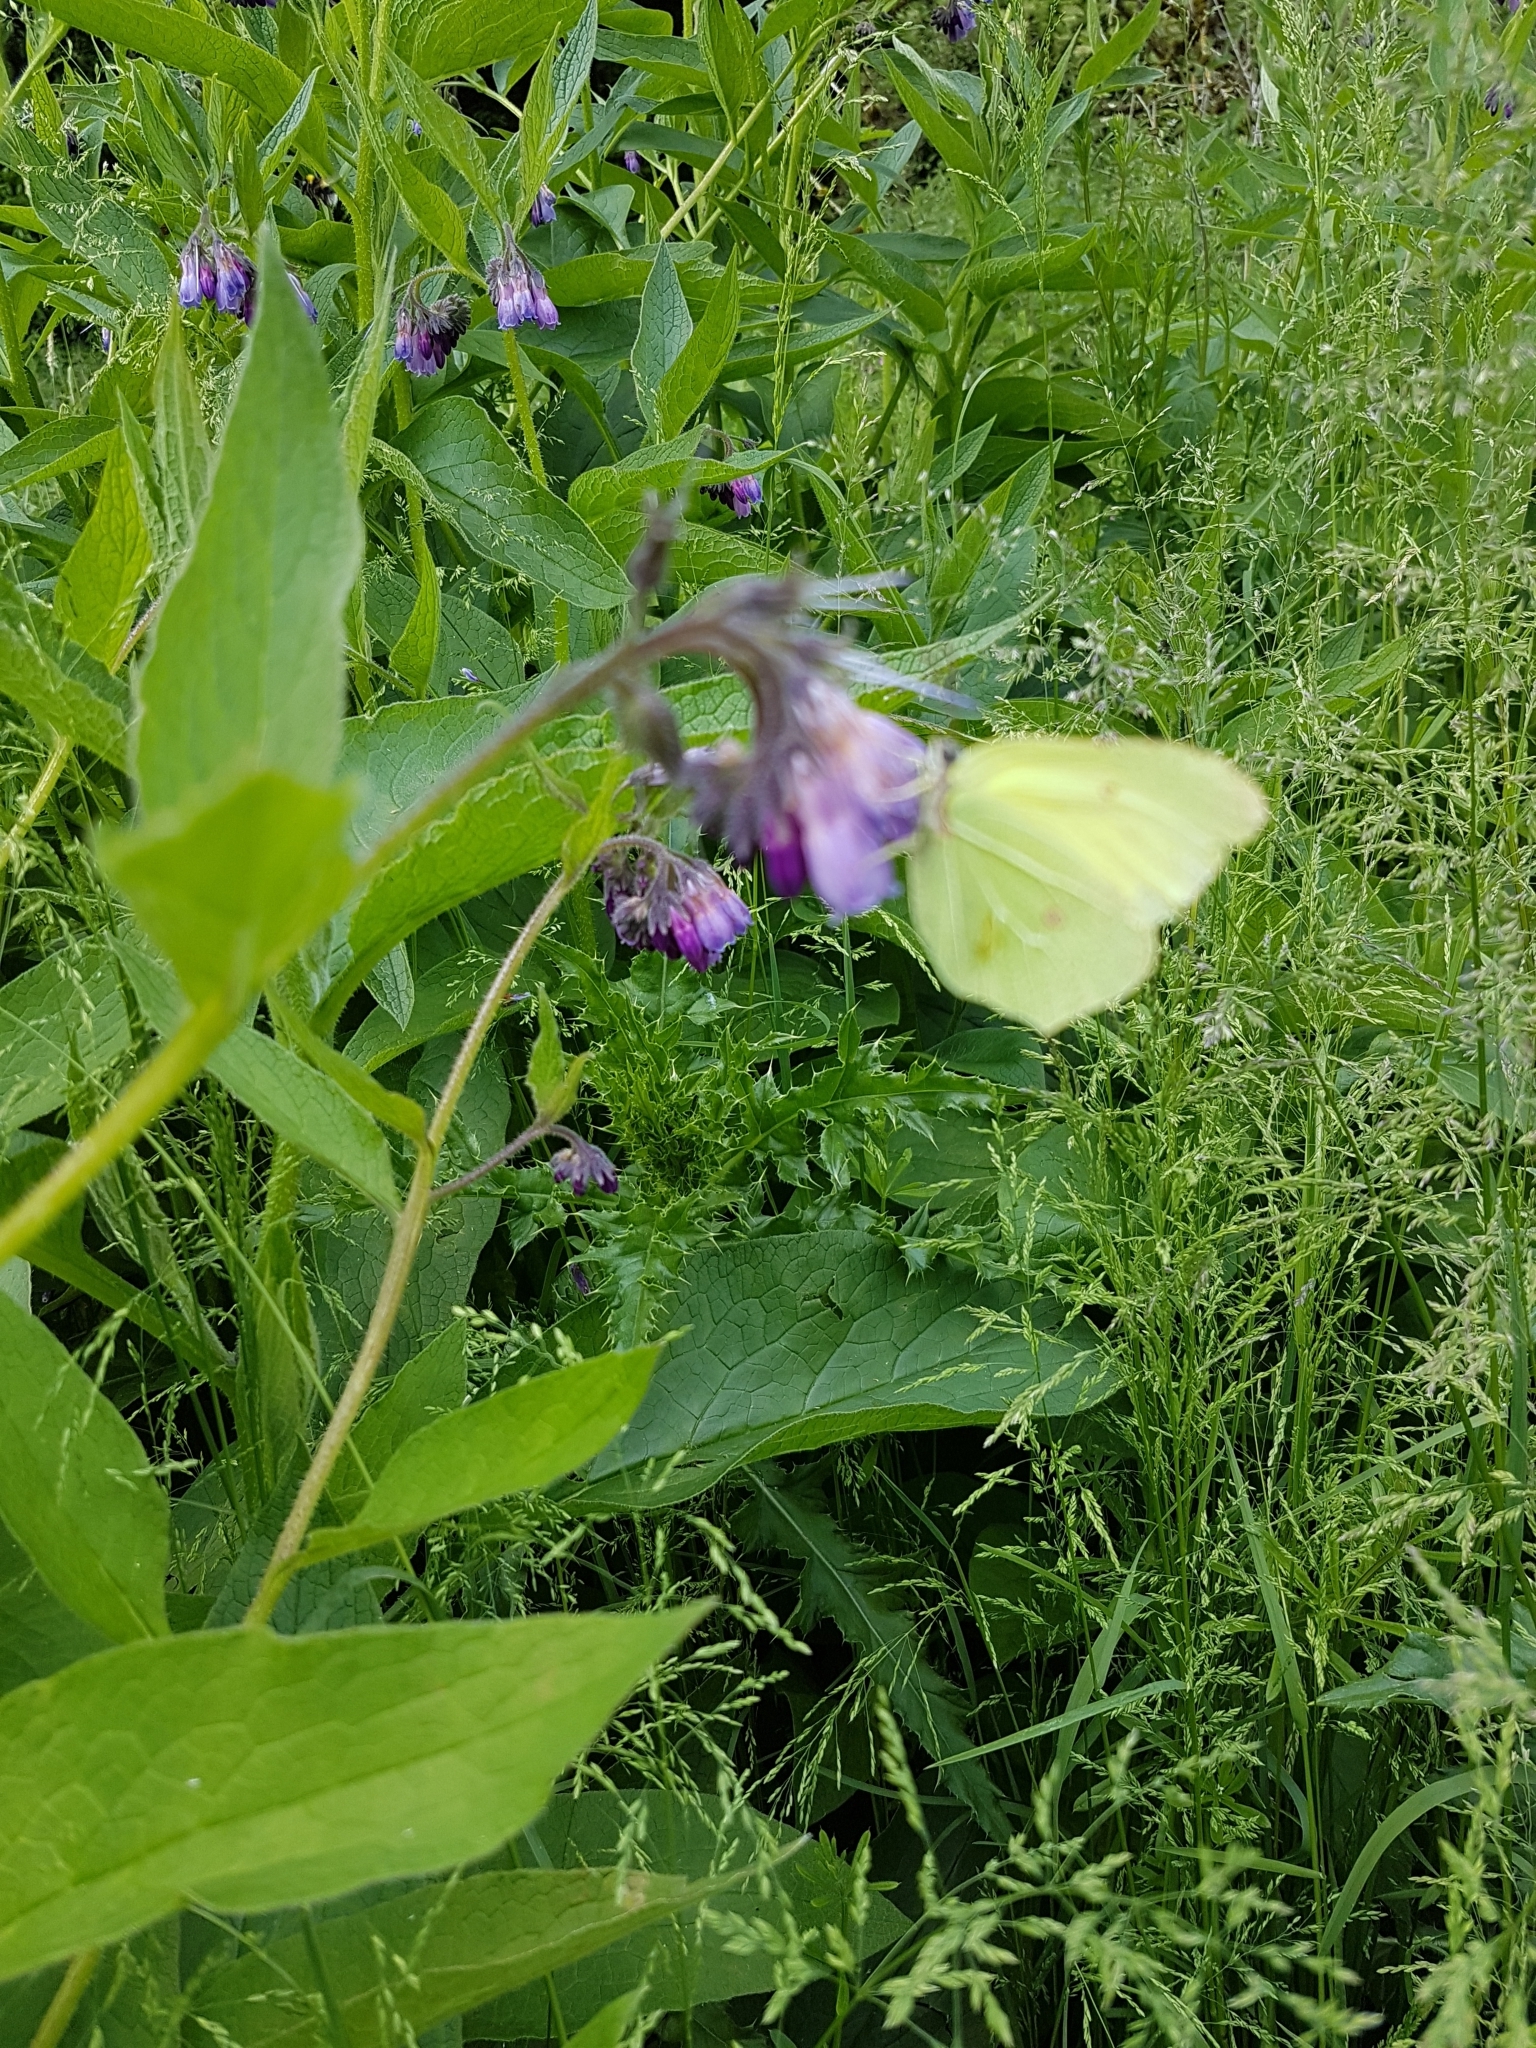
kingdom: Animalia
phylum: Arthropoda
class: Insecta
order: Lepidoptera
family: Pieridae
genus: Gonepteryx
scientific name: Gonepteryx rhamni
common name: Brimstone
